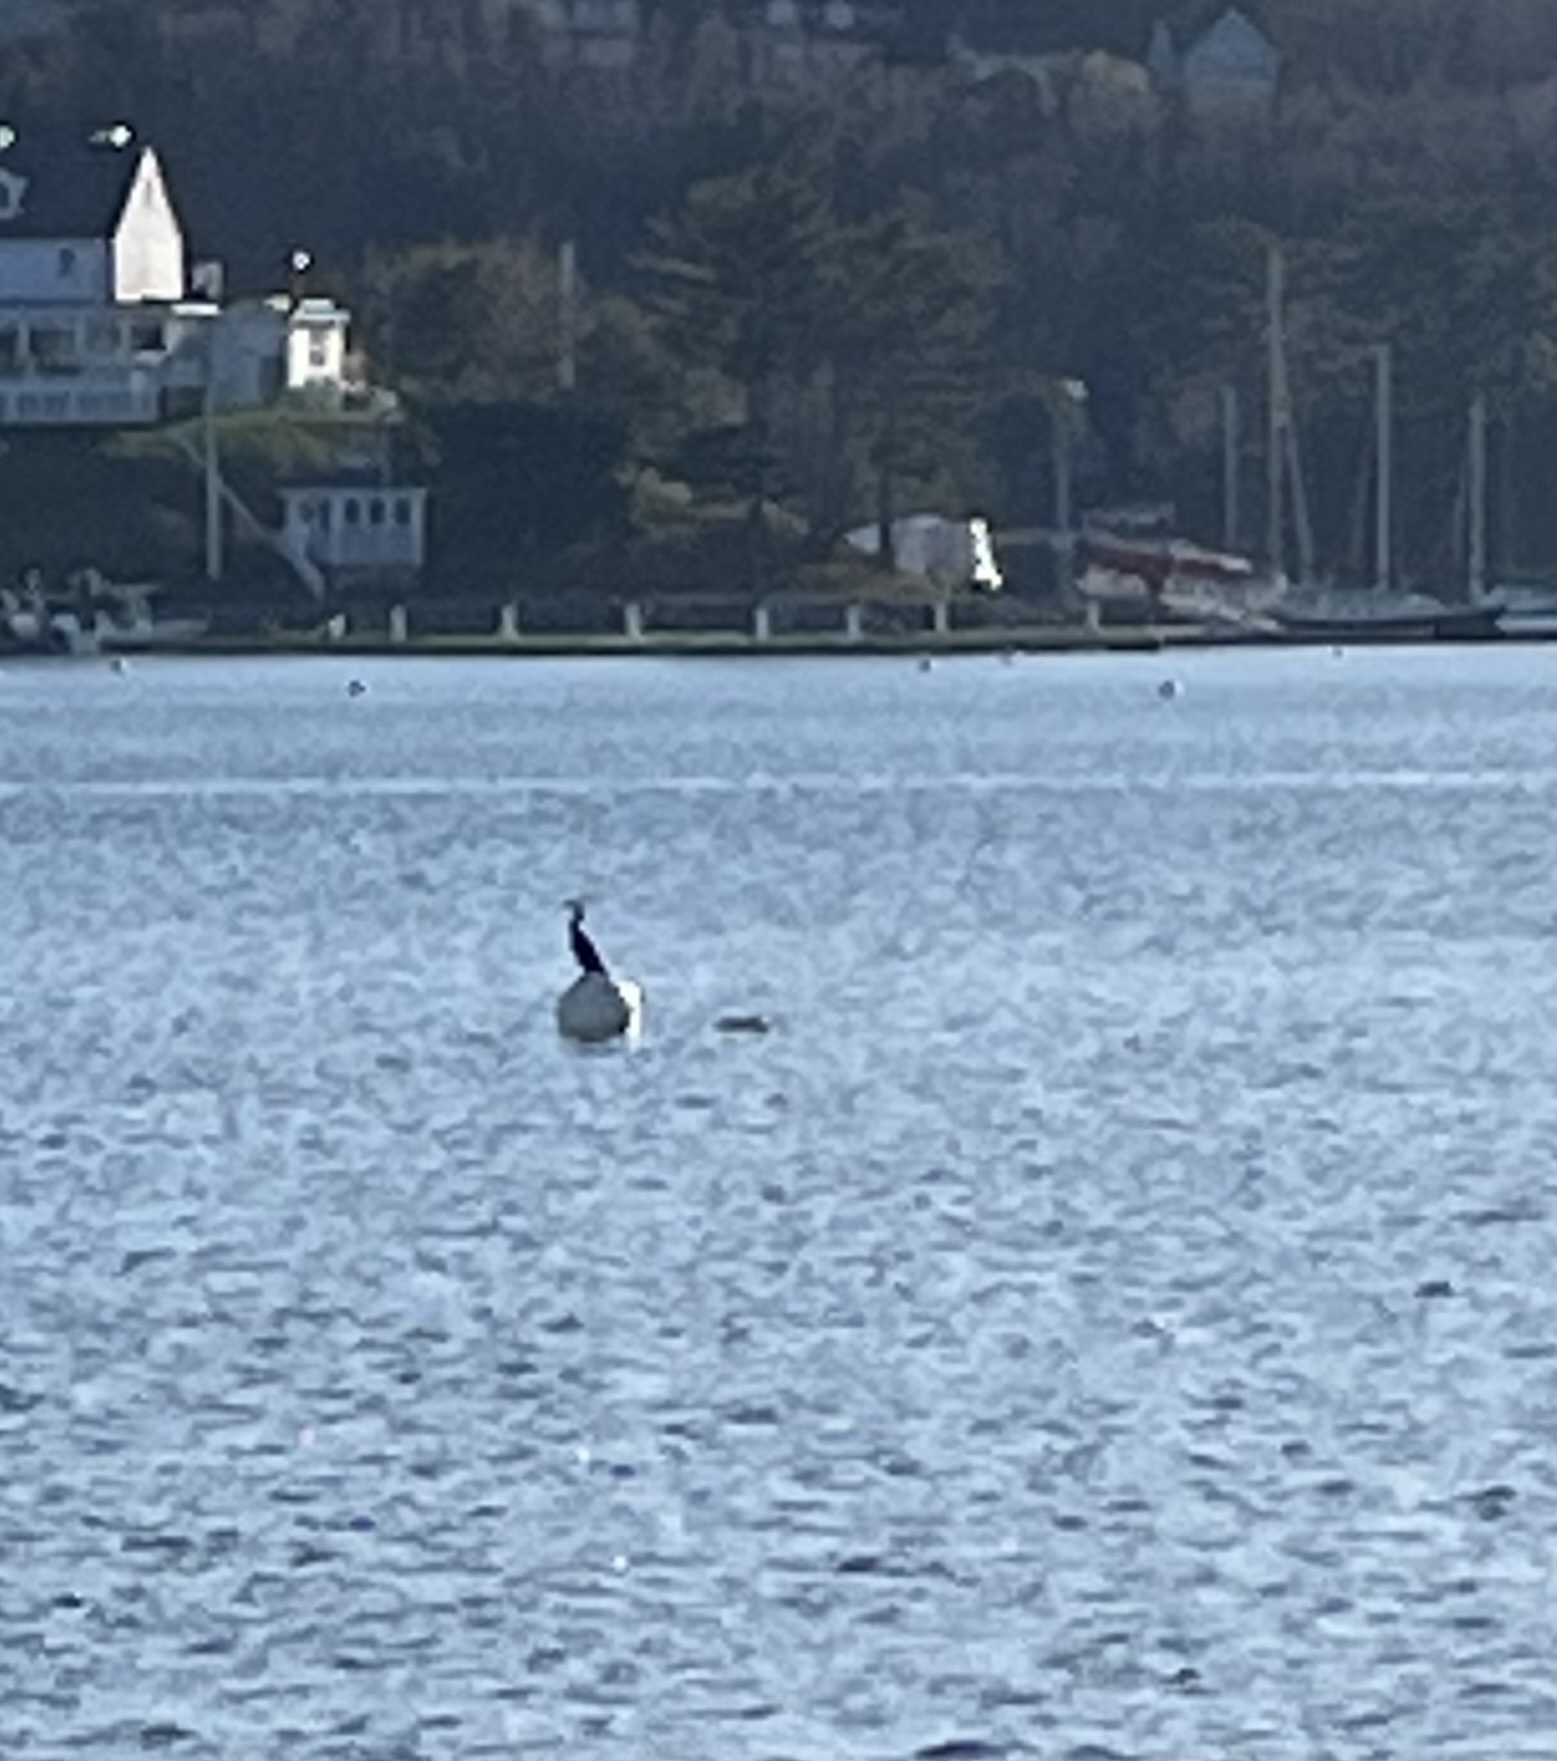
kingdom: Animalia
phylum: Chordata
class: Aves
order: Suliformes
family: Phalacrocoracidae
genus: Phalacrocorax
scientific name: Phalacrocorax auritus
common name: Double-crested cormorant
